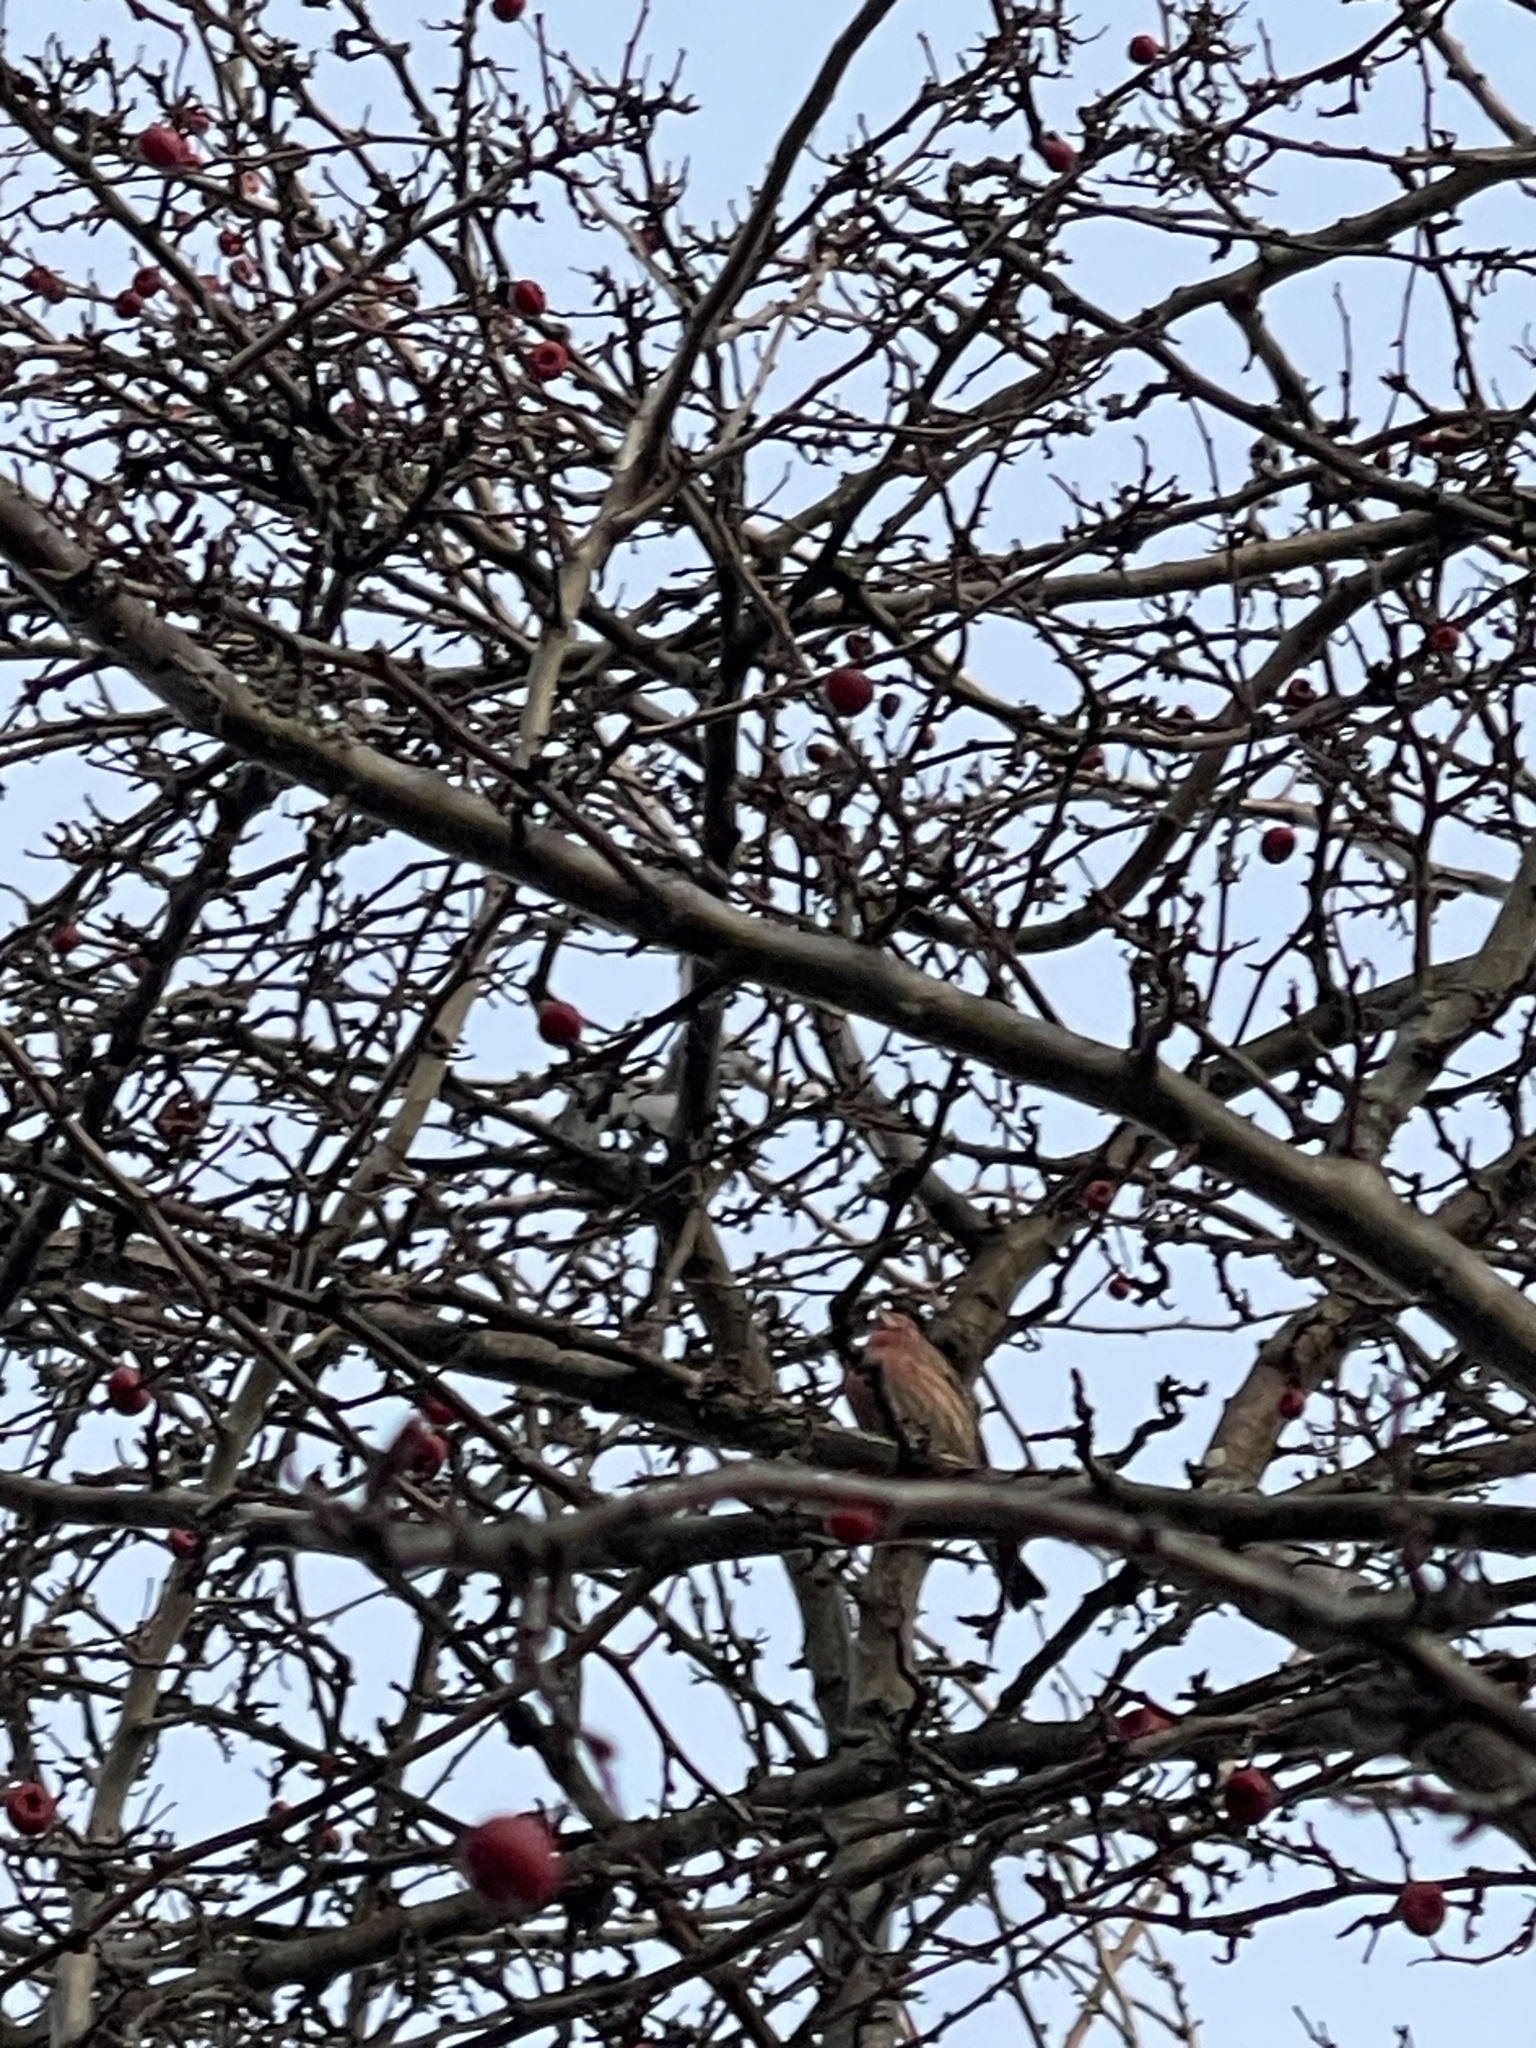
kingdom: Animalia
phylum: Chordata
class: Aves
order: Passeriformes
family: Fringillidae
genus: Haemorhous
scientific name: Haemorhous mexicanus
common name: House finch
